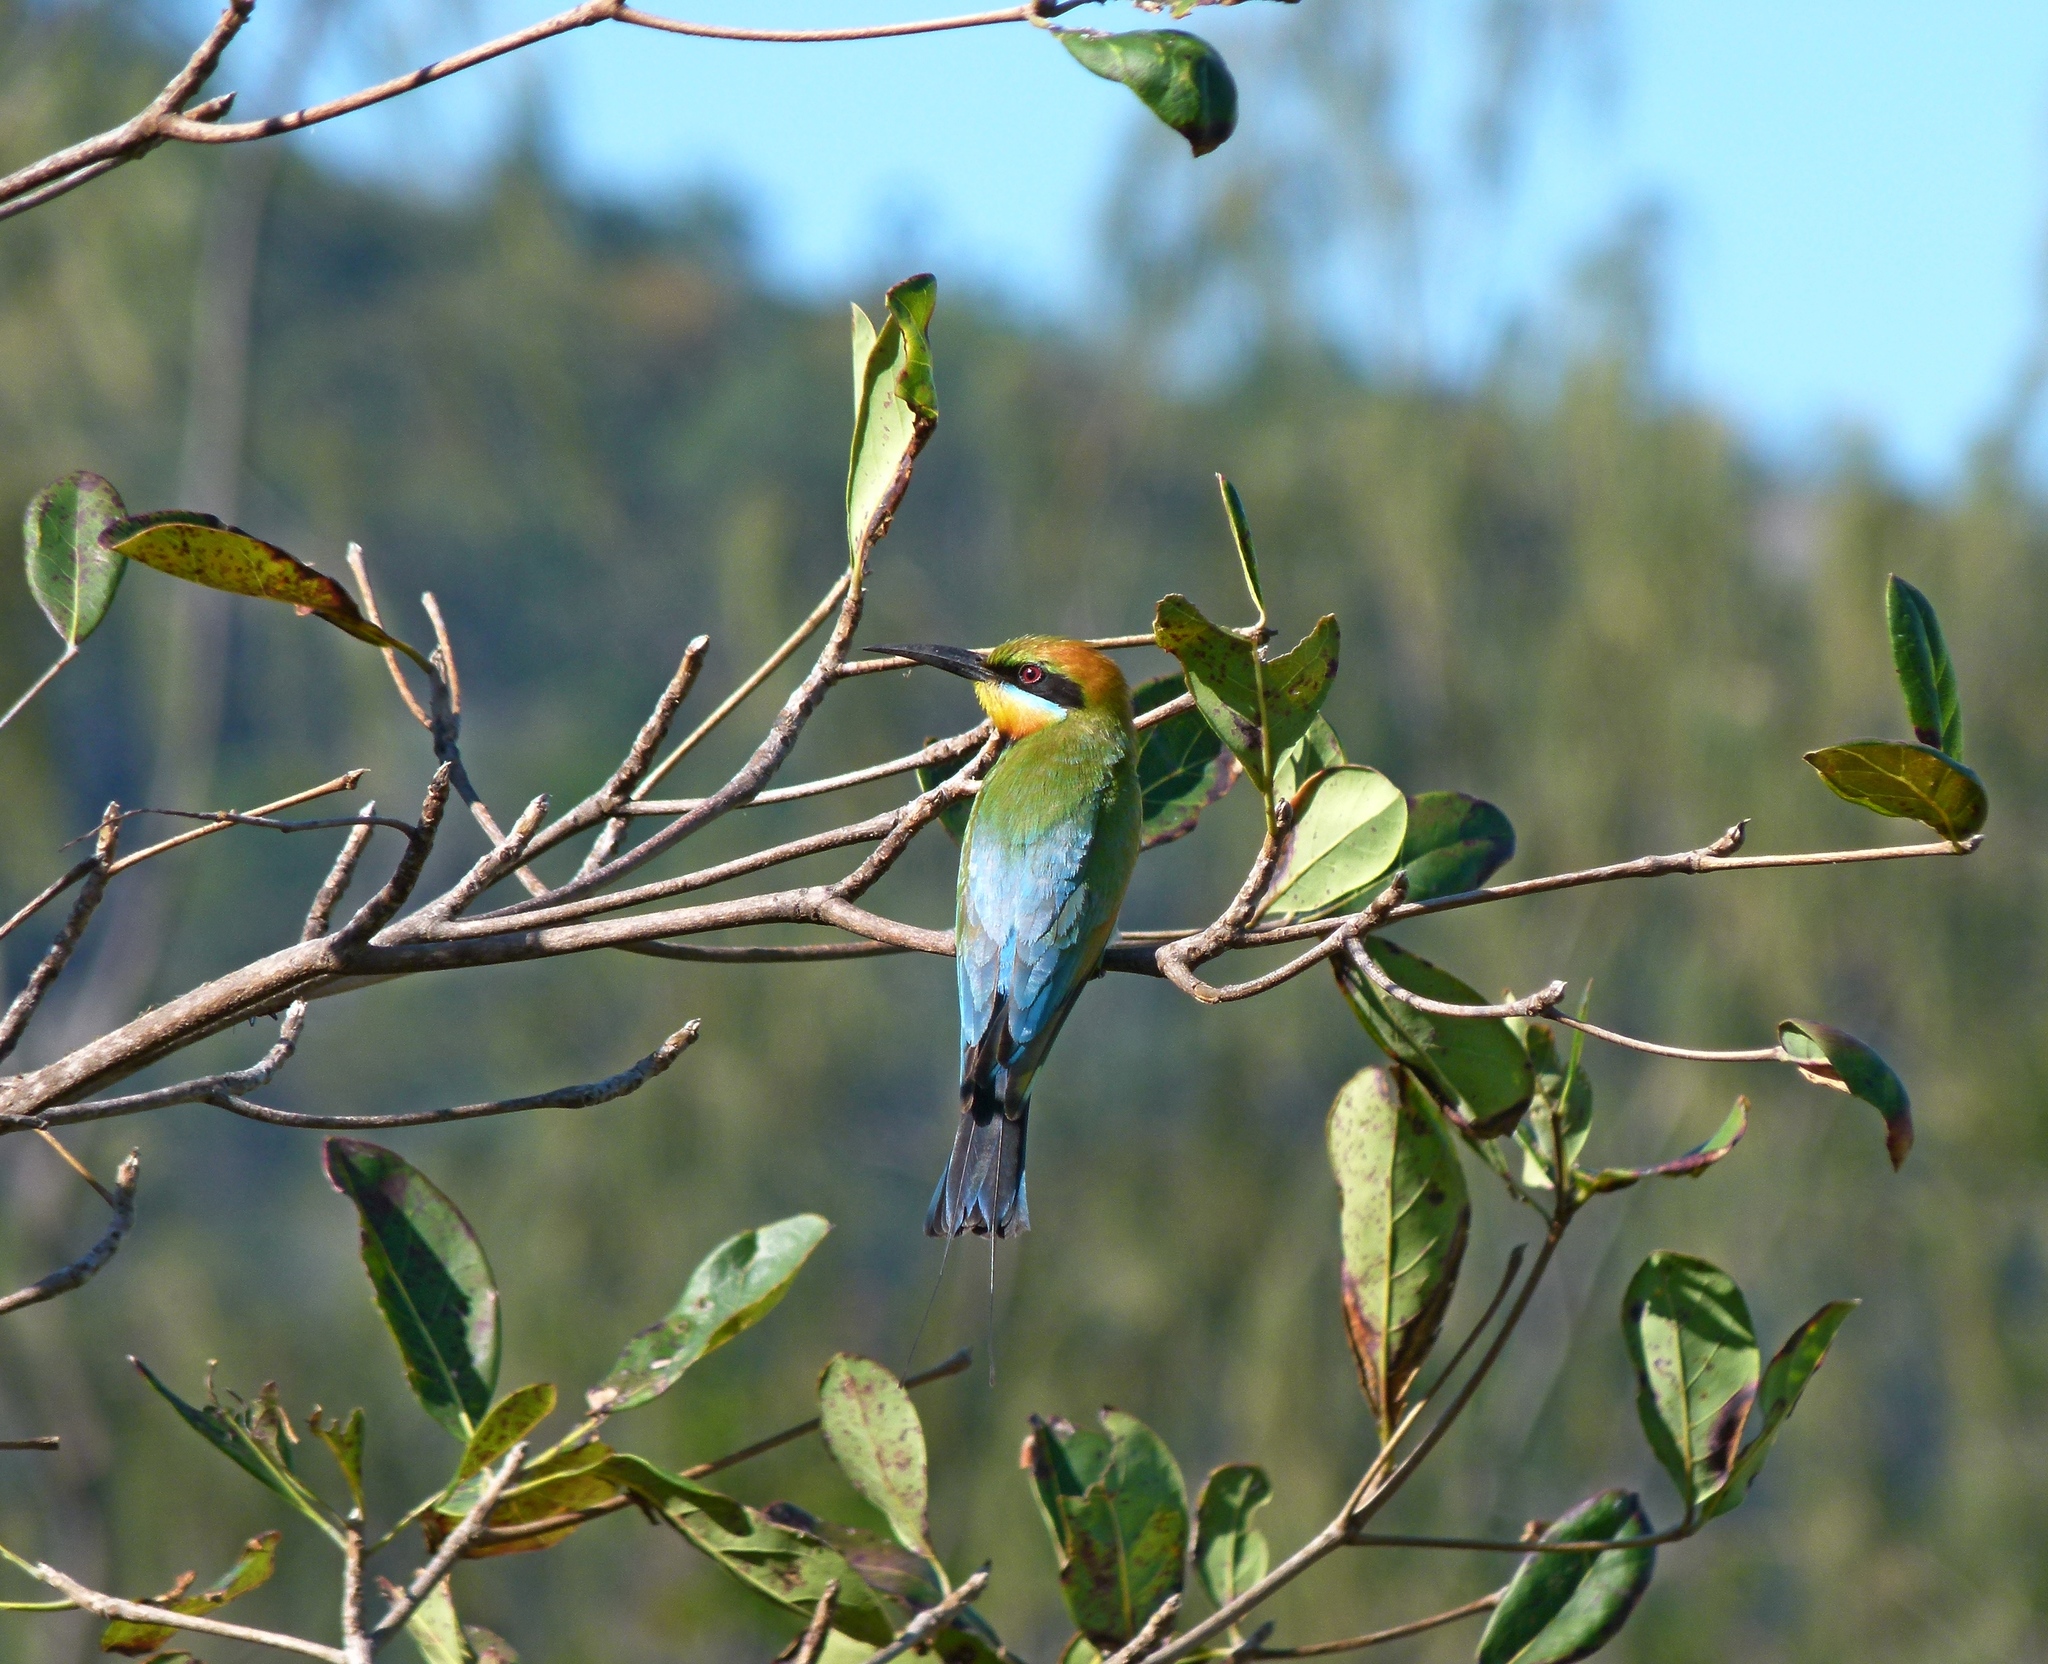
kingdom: Animalia
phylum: Chordata
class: Aves
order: Coraciiformes
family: Meropidae
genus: Merops
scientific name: Merops ornatus
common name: Rainbow bee-eater
